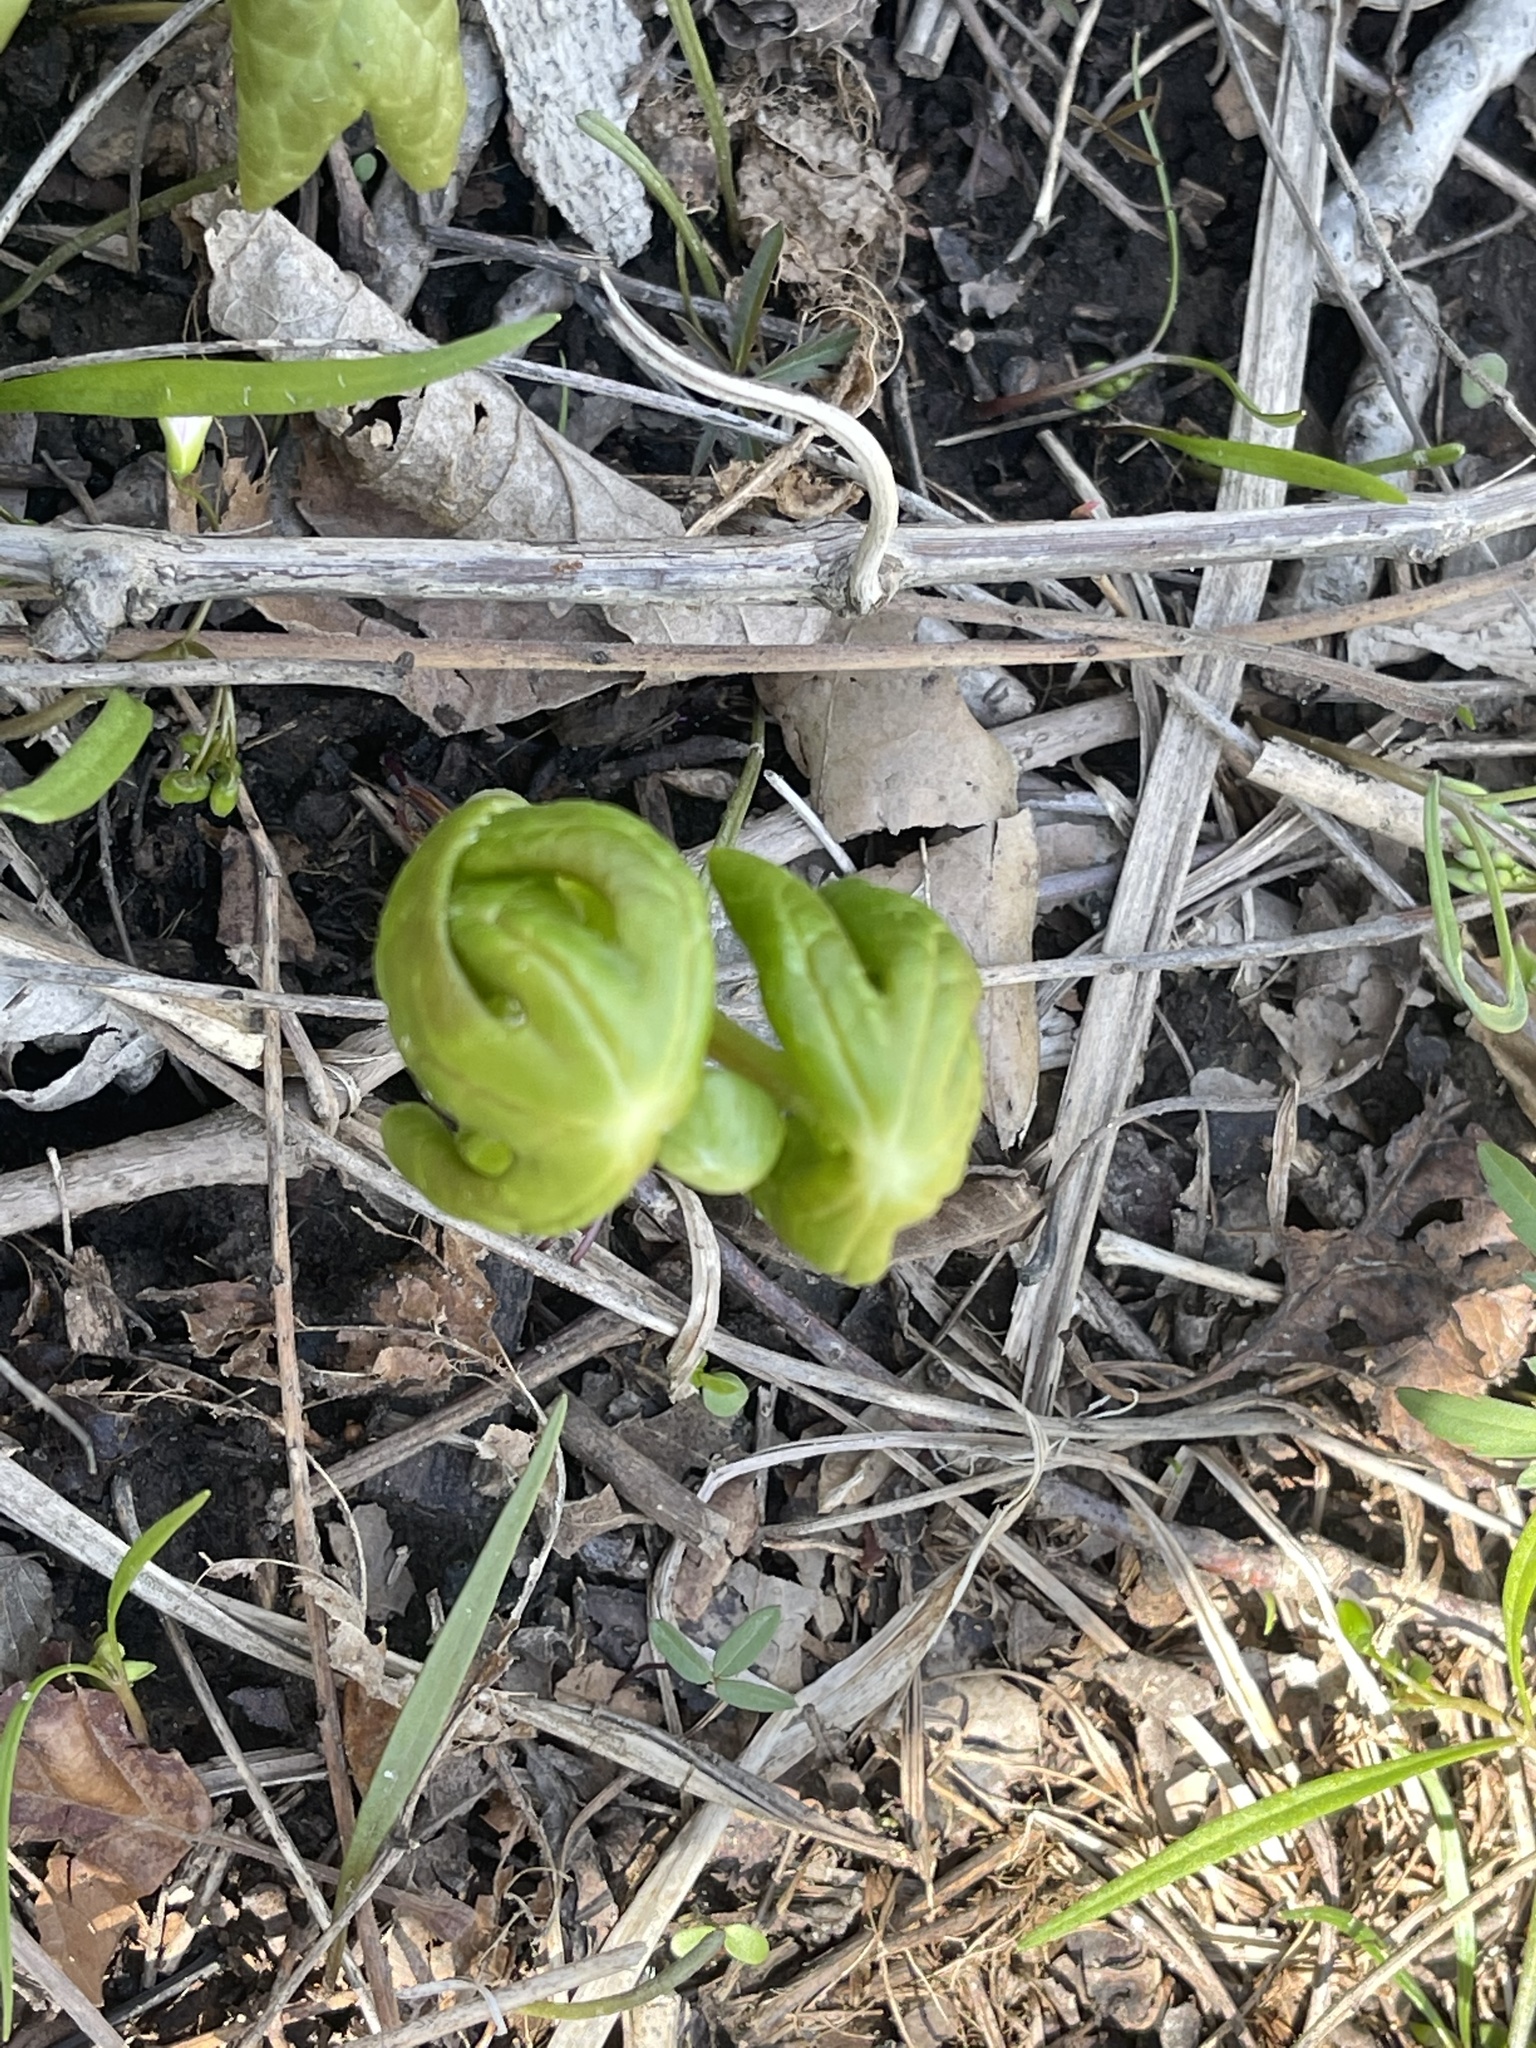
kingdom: Plantae
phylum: Tracheophyta
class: Magnoliopsida
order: Ranunculales
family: Berberidaceae
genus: Podophyllum
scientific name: Podophyllum peltatum
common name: Wild mandrake
